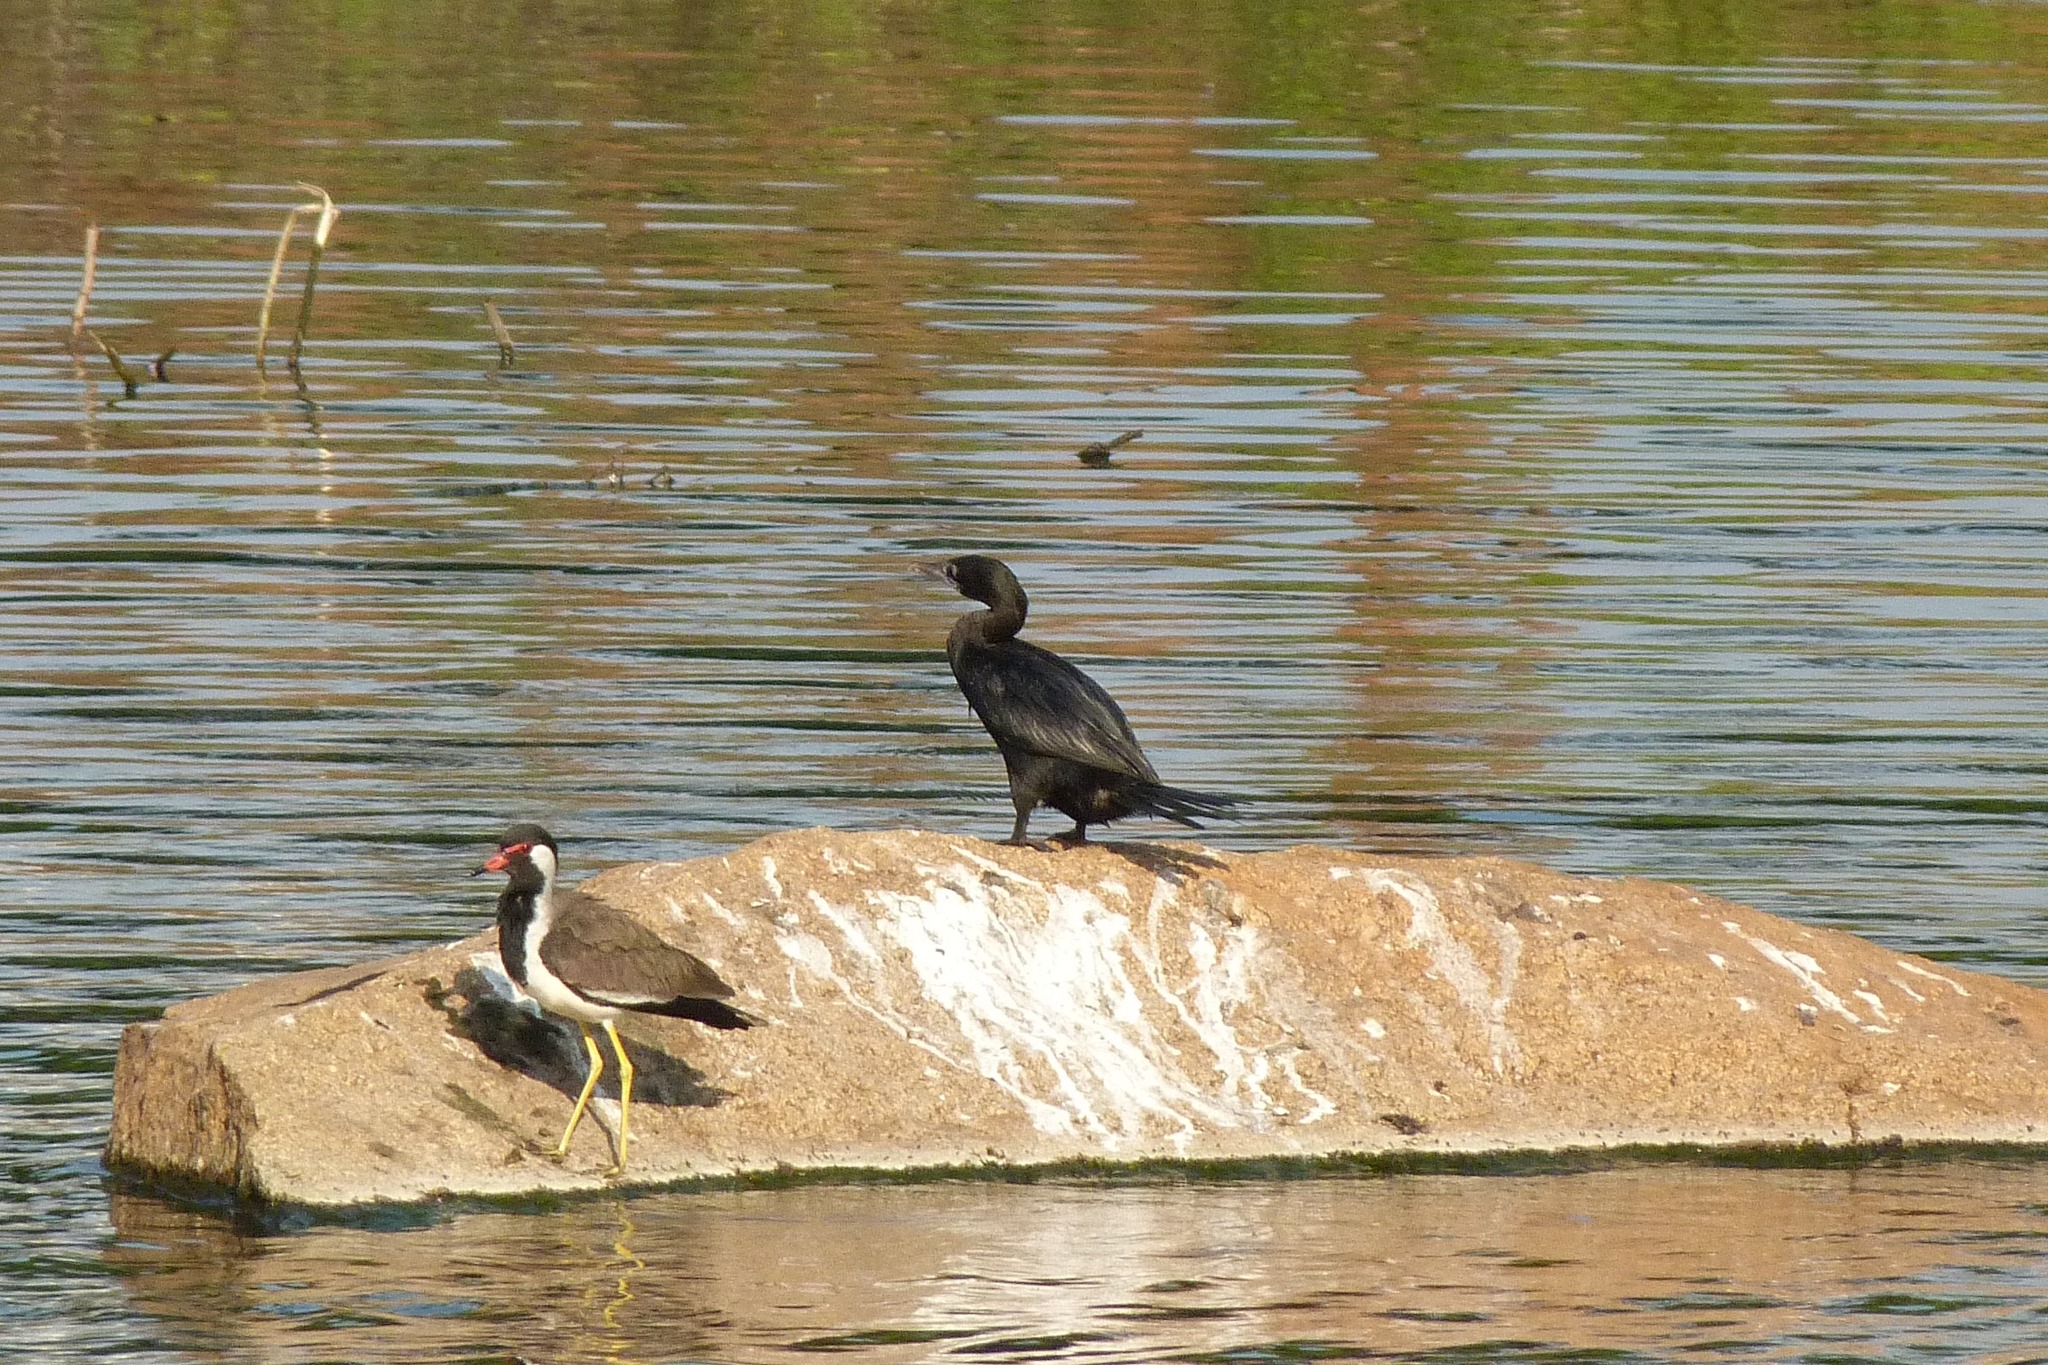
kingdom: Animalia
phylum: Chordata
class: Aves
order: Charadriiformes
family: Charadriidae
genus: Vanellus
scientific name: Vanellus indicus
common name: Red-wattled lapwing
